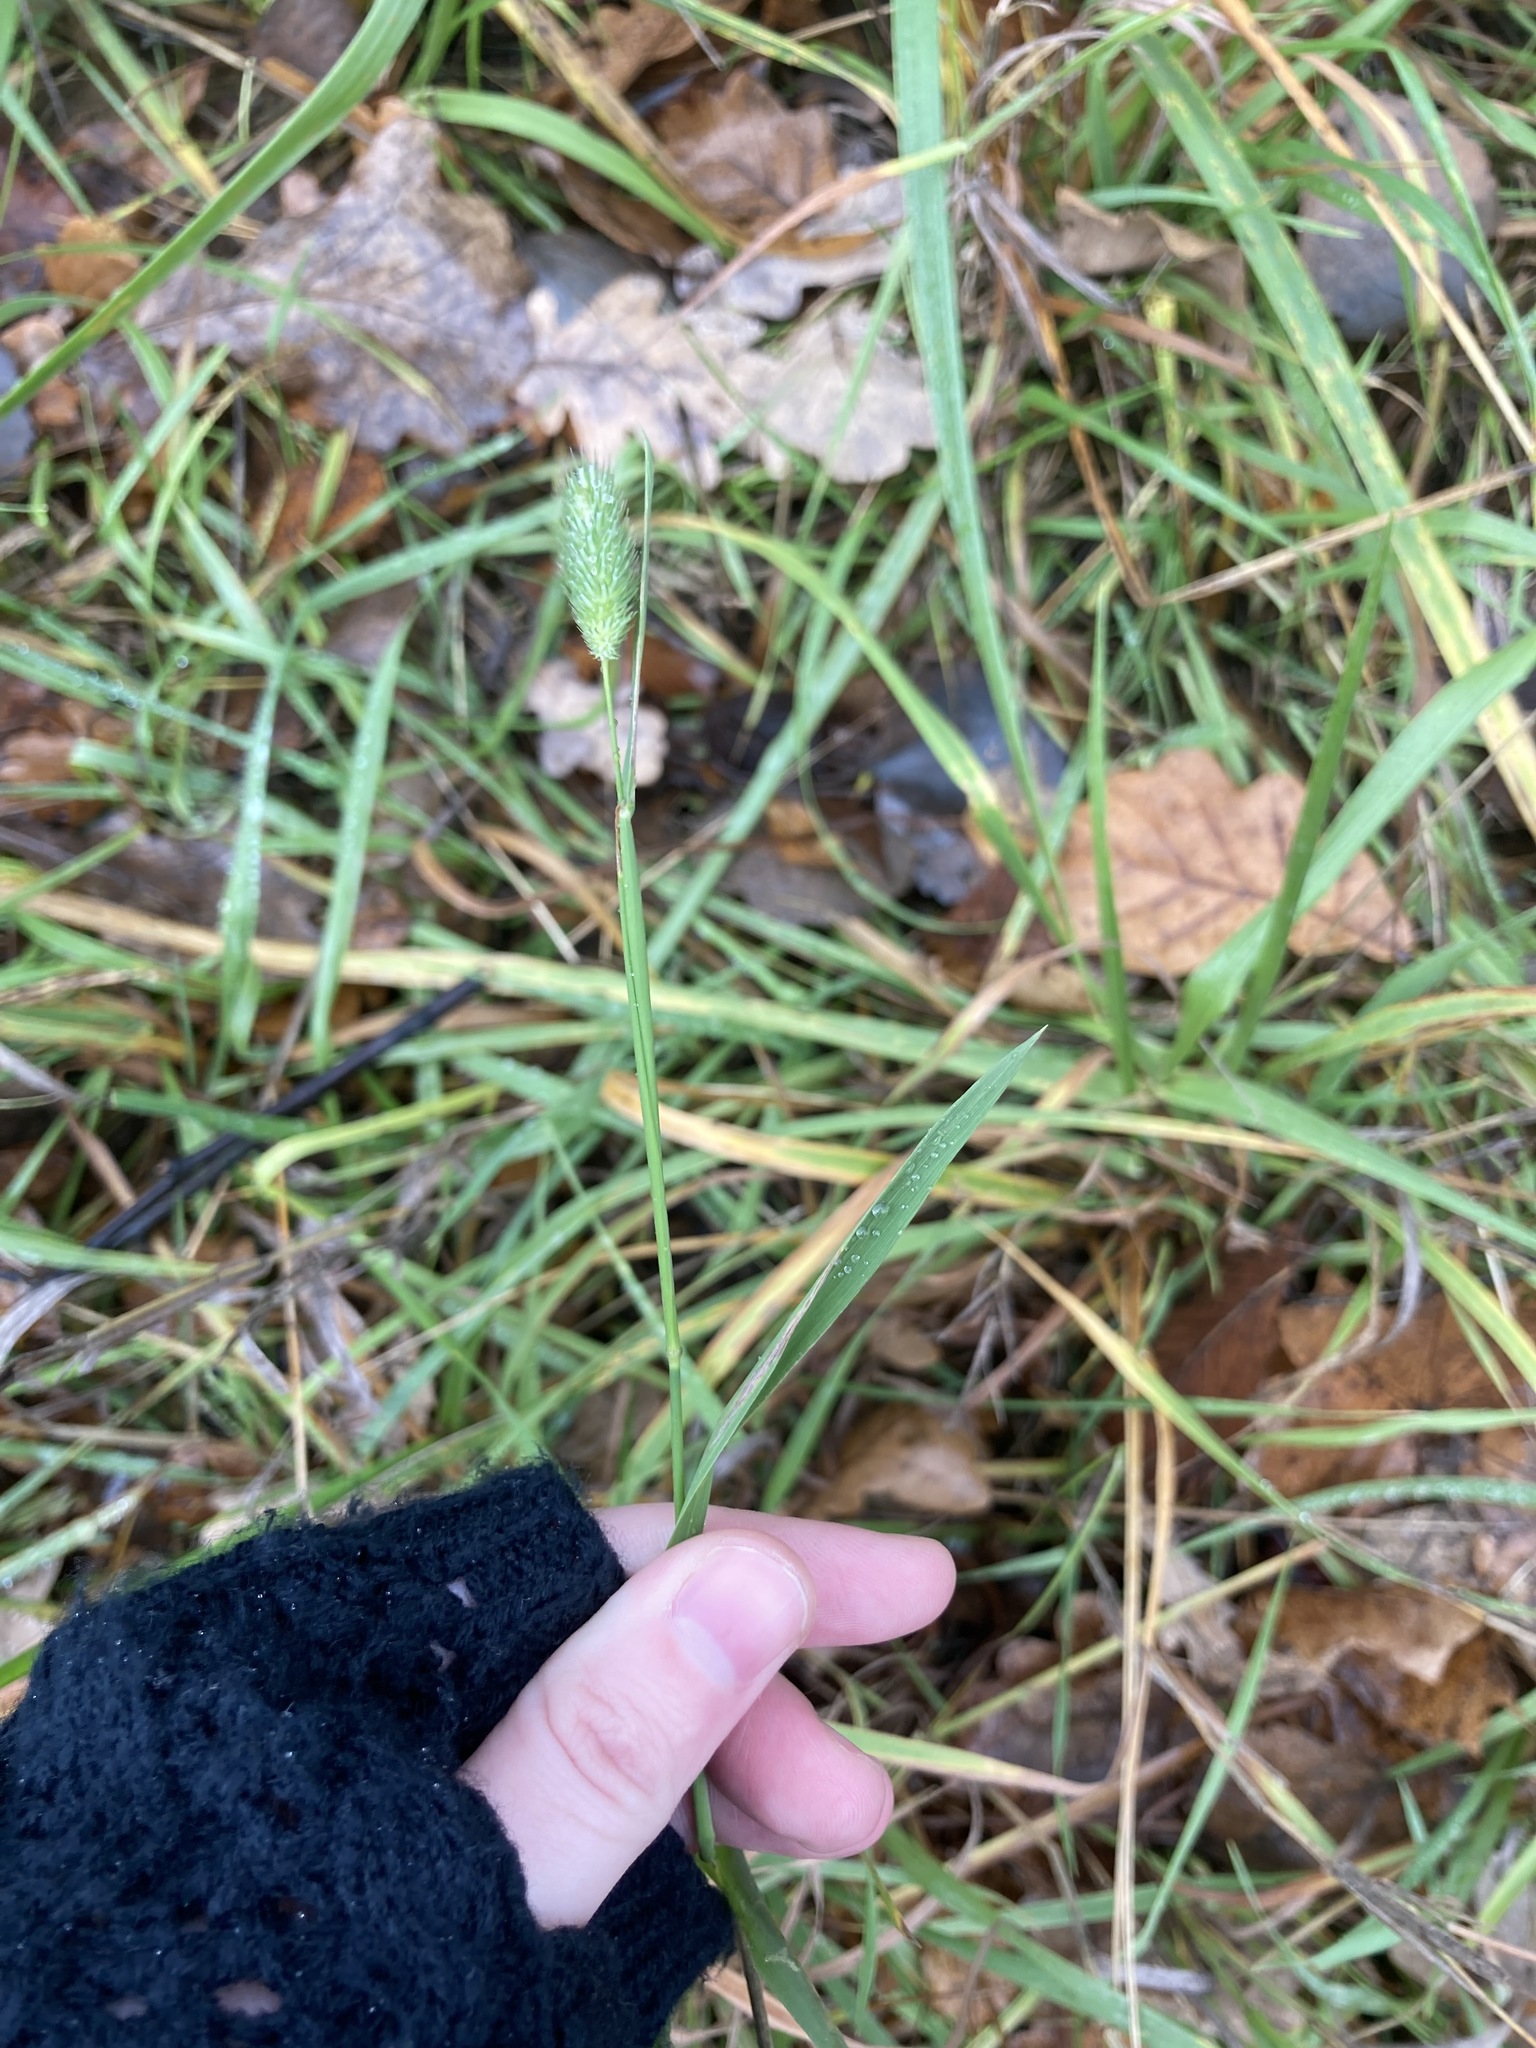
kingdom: Plantae
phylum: Tracheophyta
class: Liliopsida
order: Poales
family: Poaceae
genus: Phleum
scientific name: Phleum pratense
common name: Timothy grass
